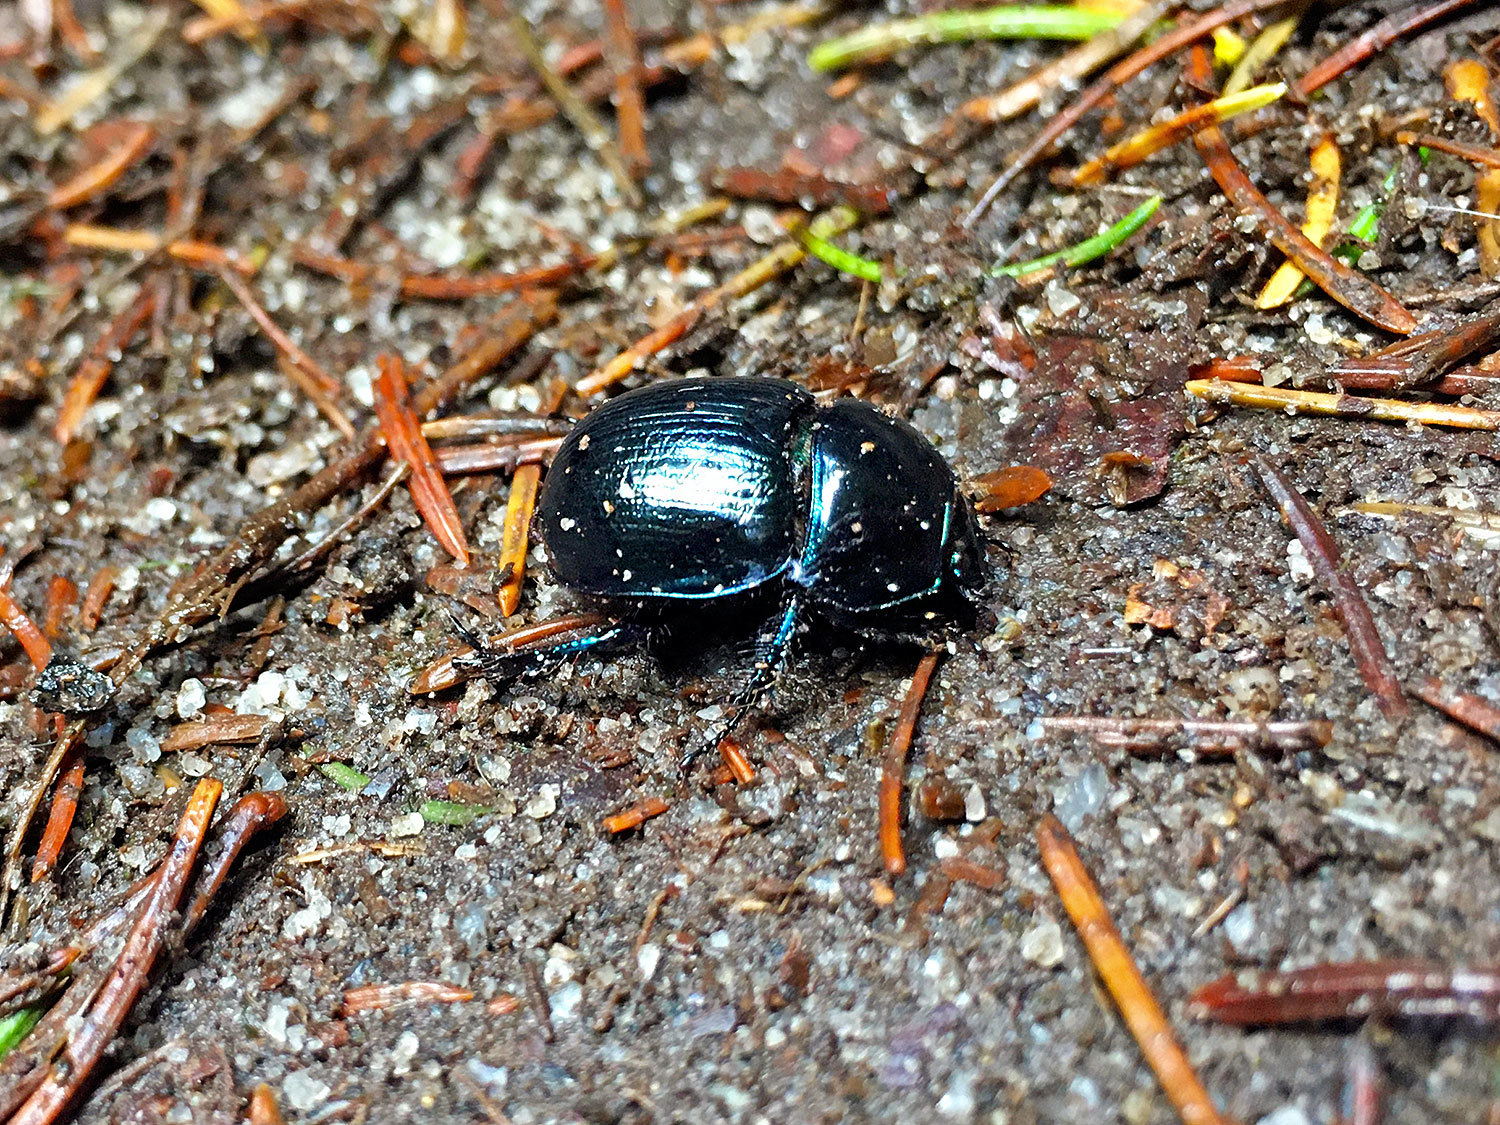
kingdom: Animalia
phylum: Arthropoda
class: Insecta
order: Coleoptera
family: Geotrupidae
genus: Anoplotrupes
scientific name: Anoplotrupes stercorosus
